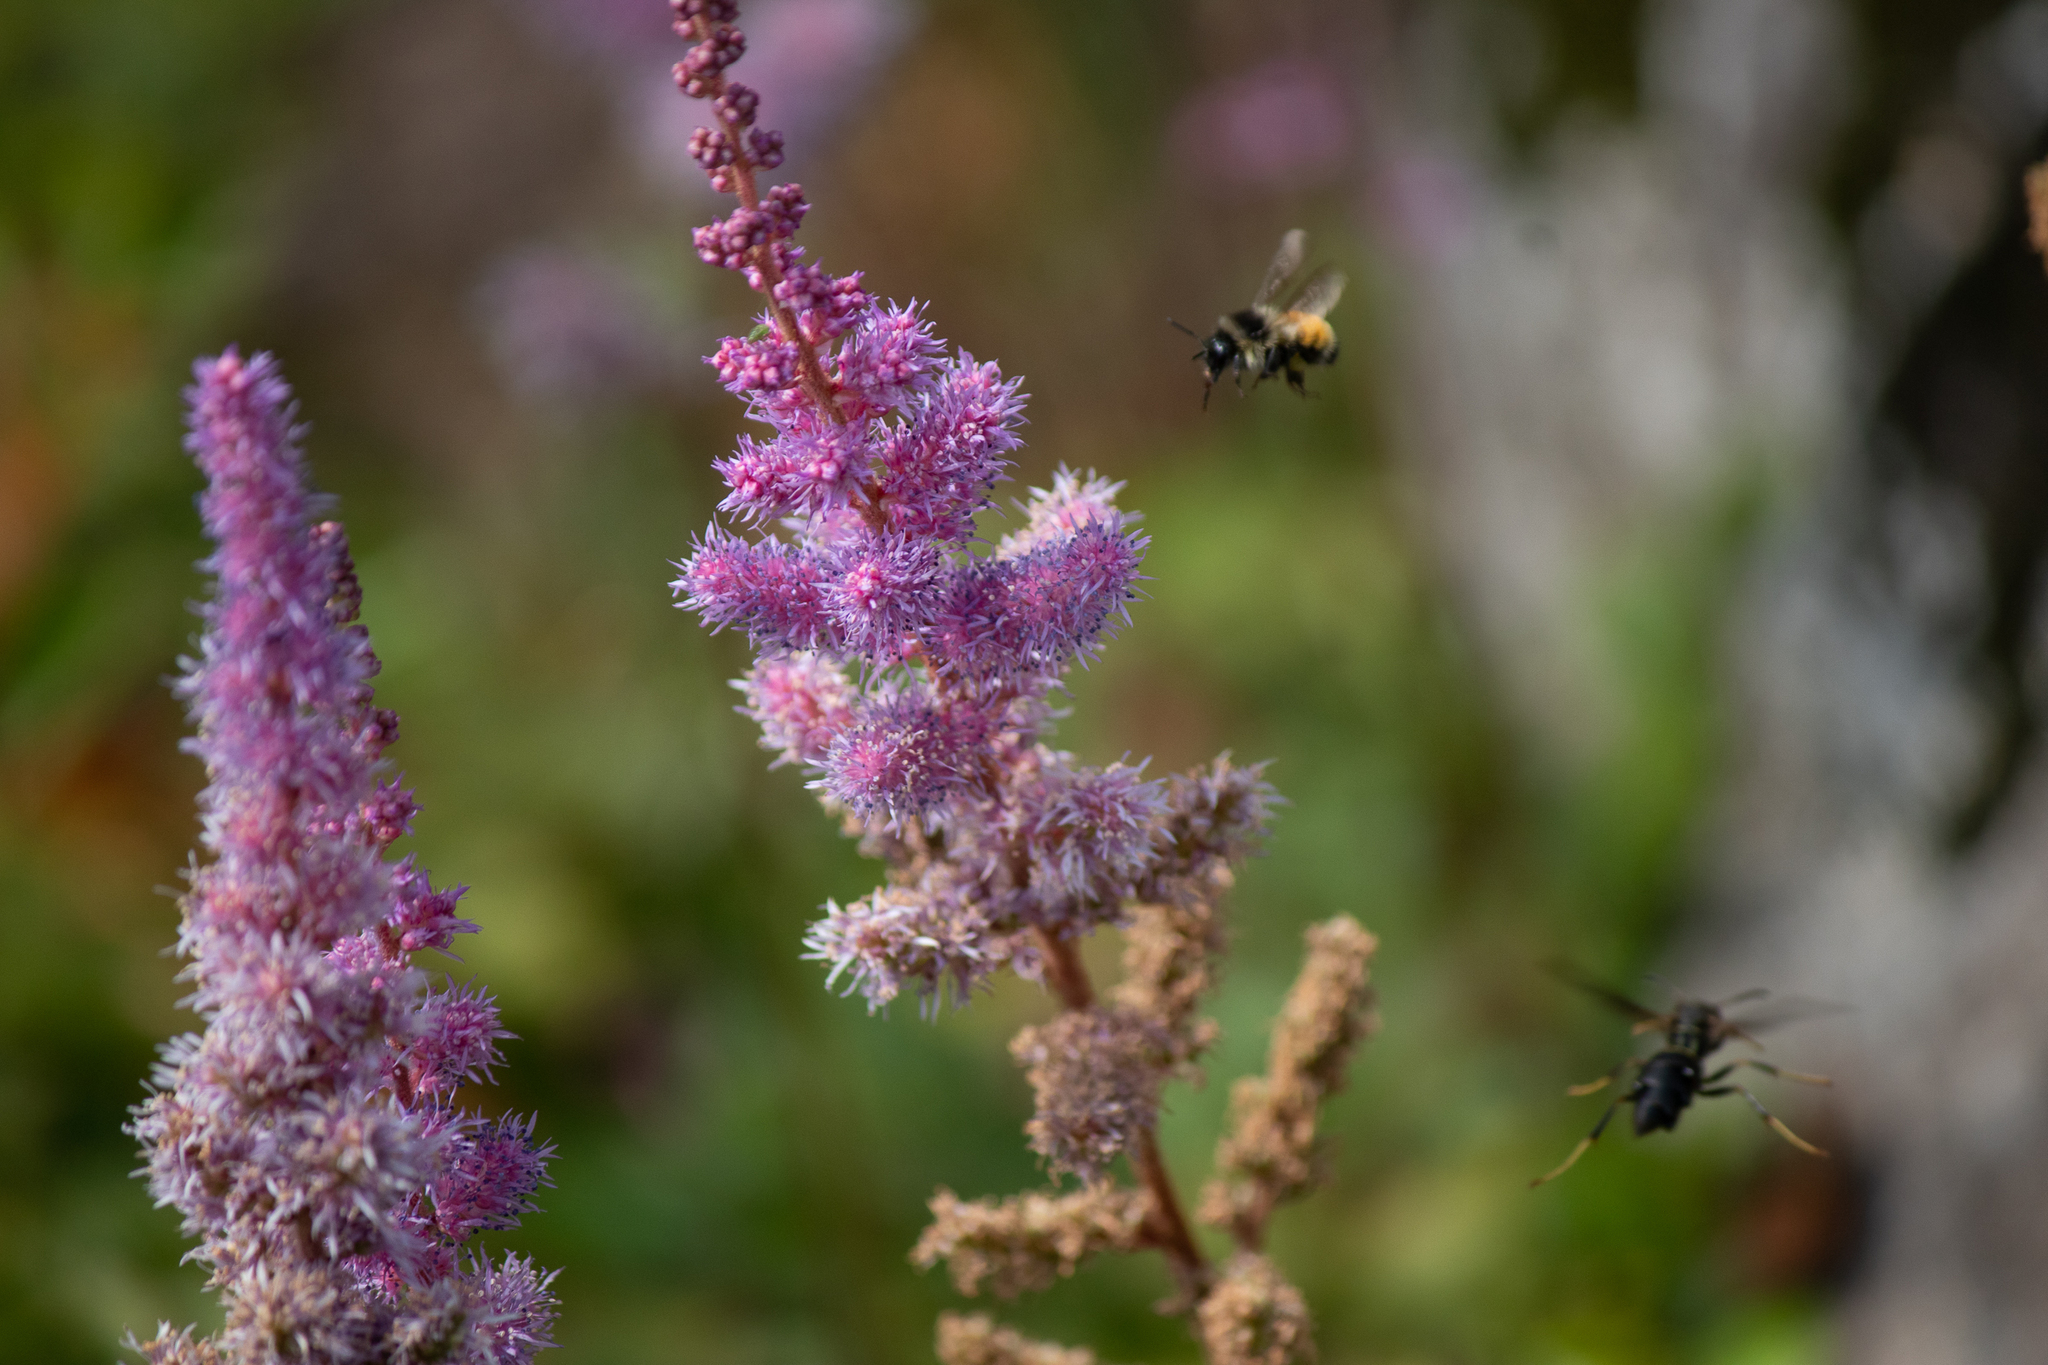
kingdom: Plantae
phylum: Tracheophyta
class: Magnoliopsida
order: Rosales
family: Rosaceae
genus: Spiraea
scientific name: Spiraea tomentosa
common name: Hardhack
